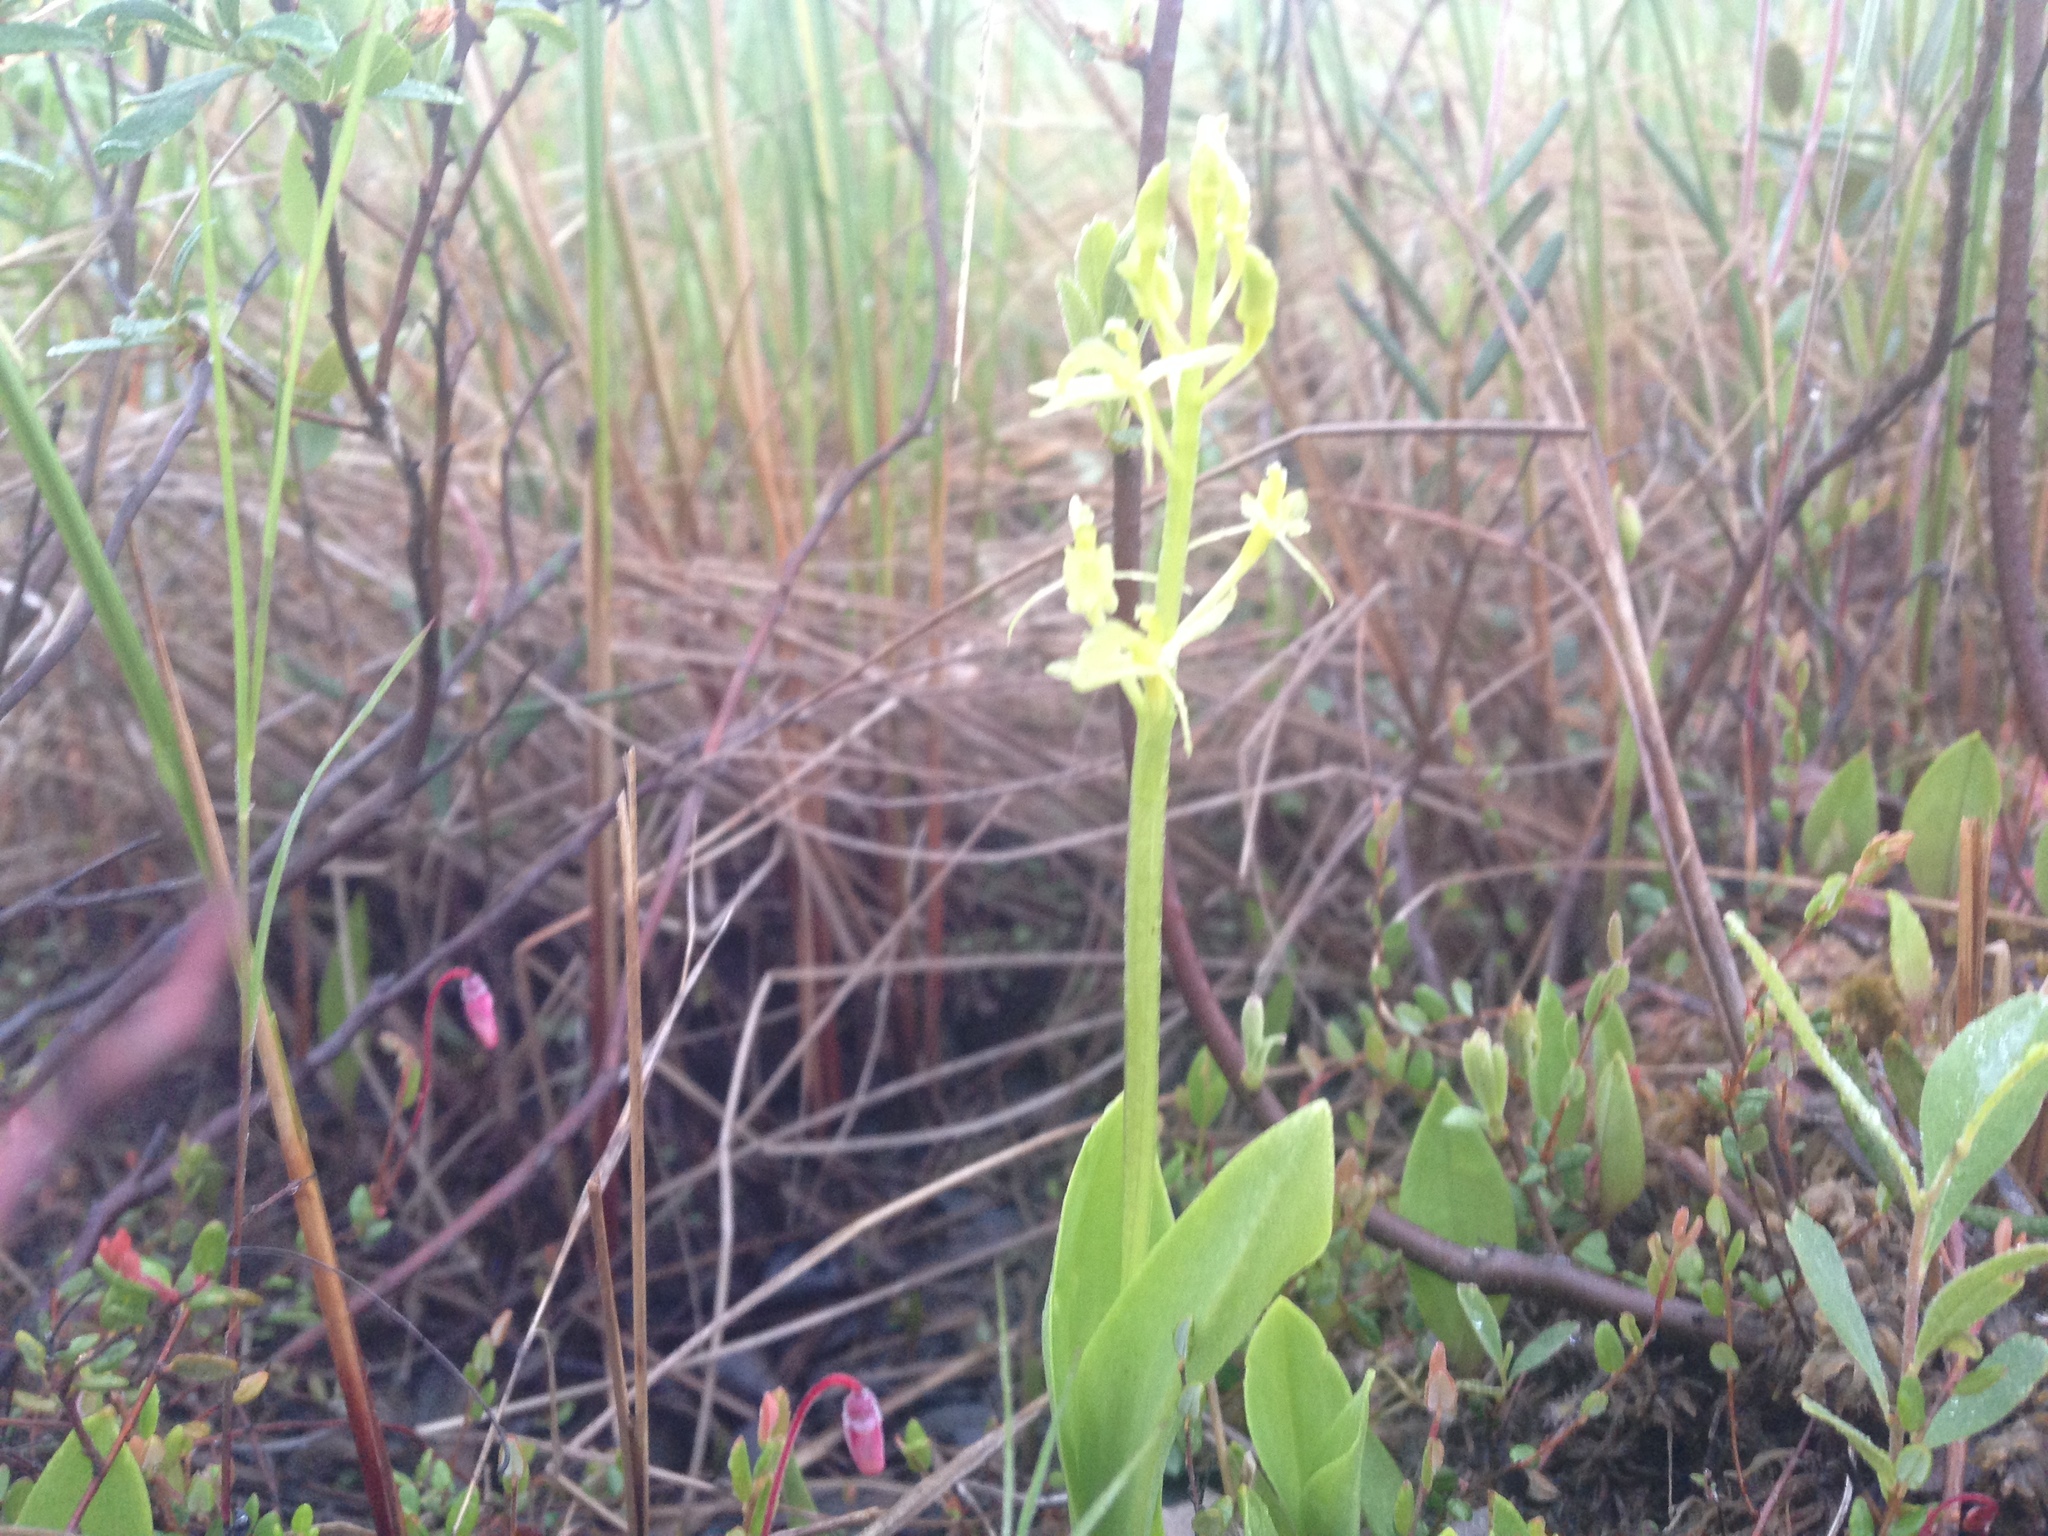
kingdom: Animalia
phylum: Arthropoda
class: Insecta
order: Coleoptera
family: Curculionidae
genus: Liparis
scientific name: Liparis loeselii
